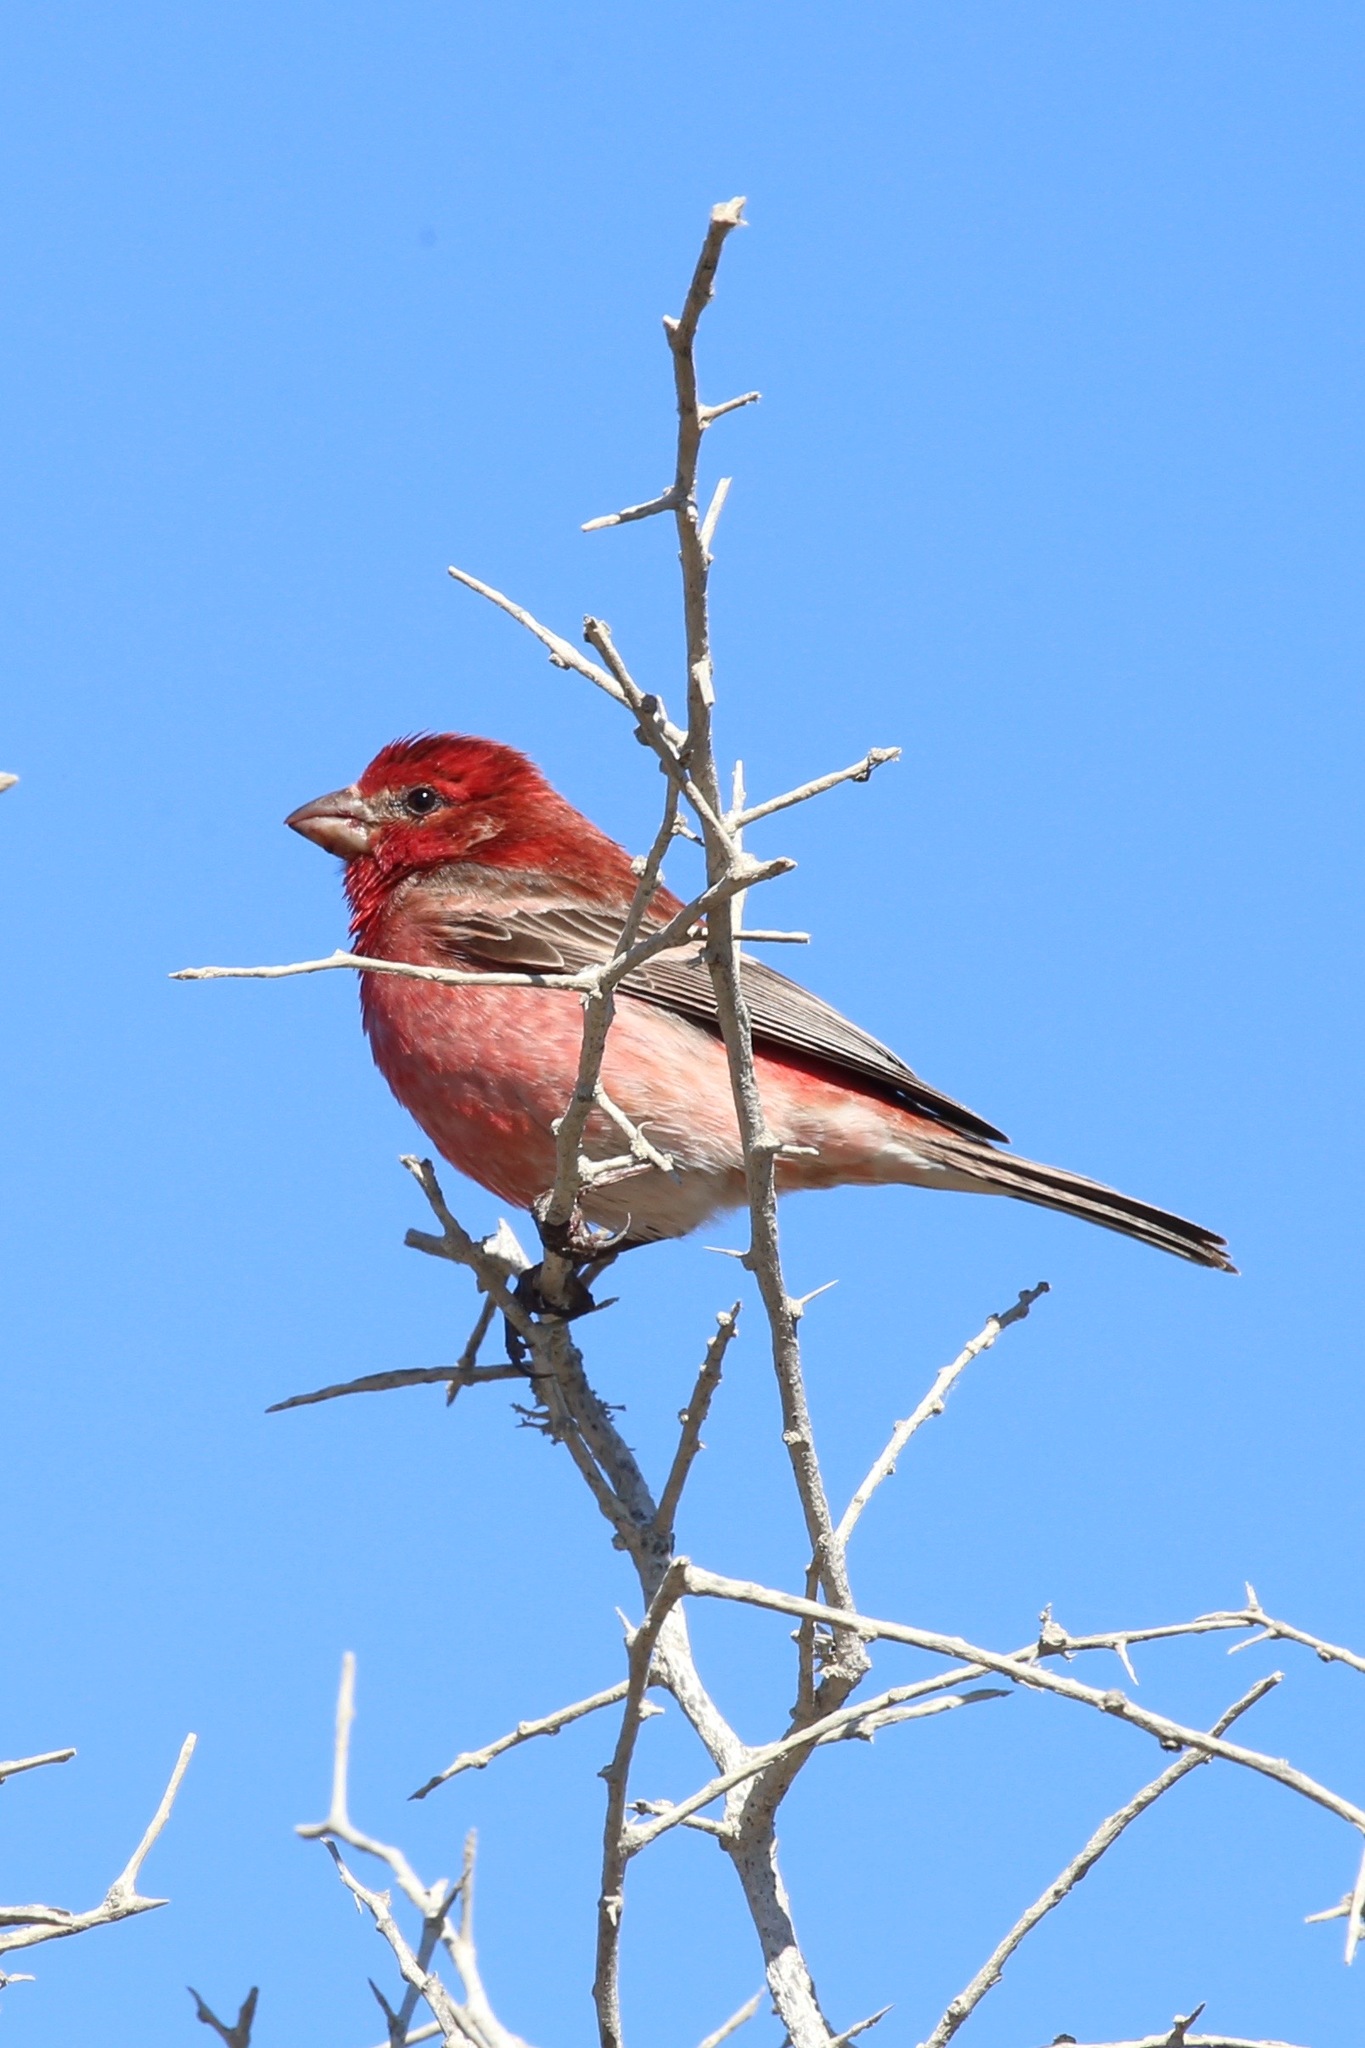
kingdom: Animalia
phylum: Chordata
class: Aves
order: Passeriformes
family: Fringillidae
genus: Haemorhous
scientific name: Haemorhous mexicanus
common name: House finch
